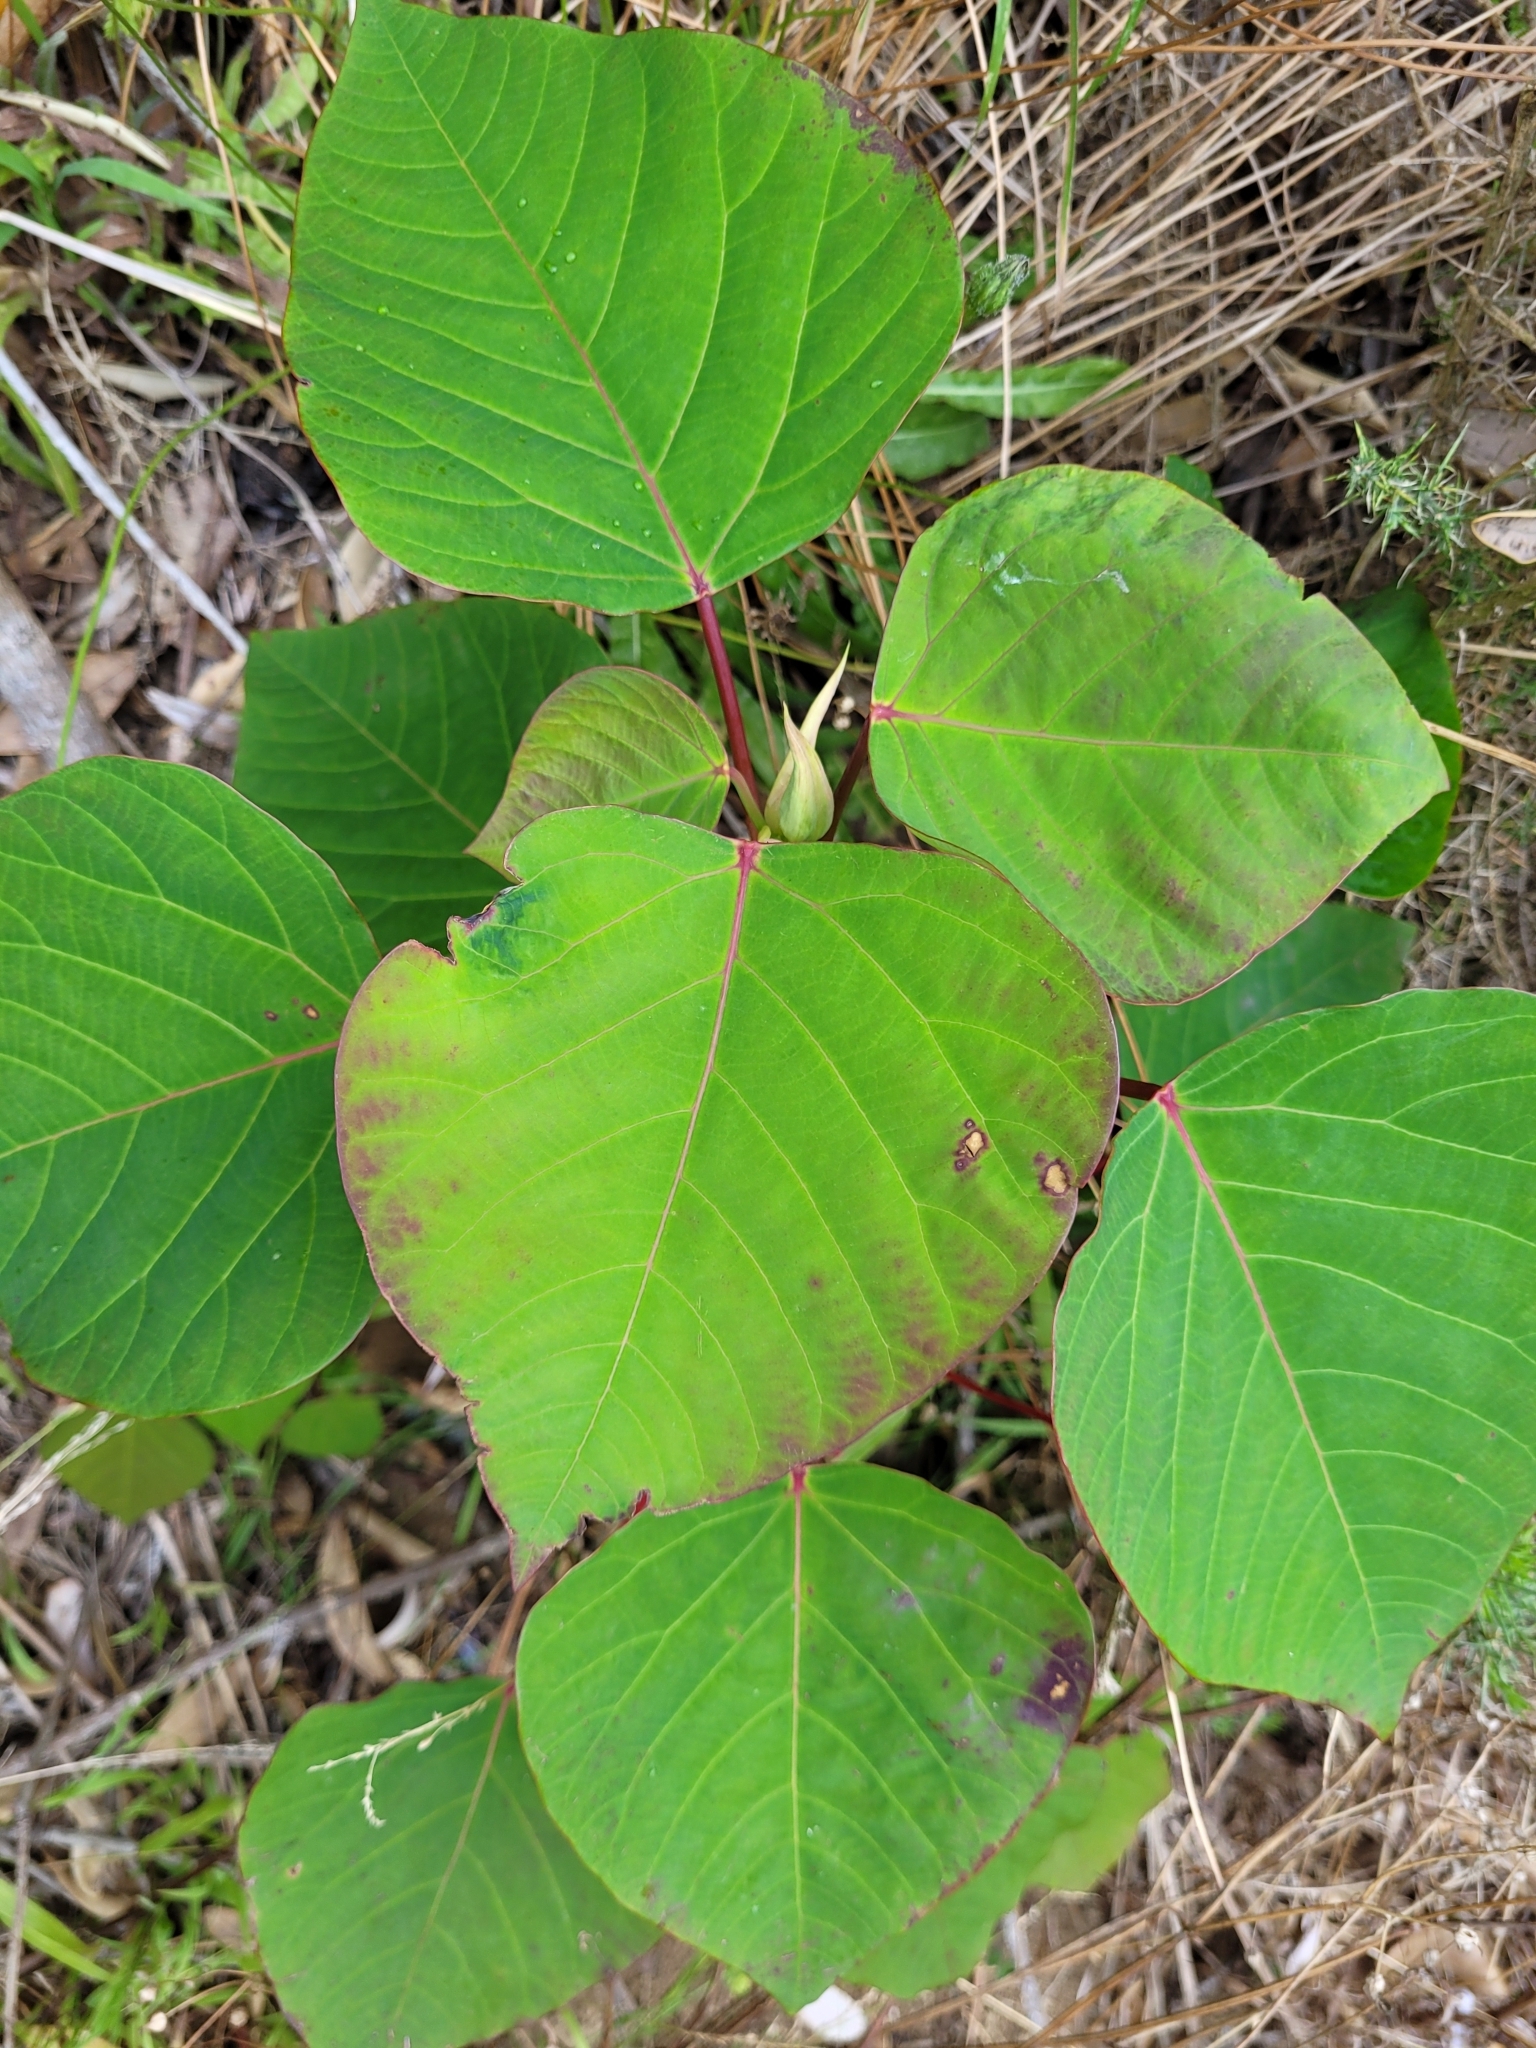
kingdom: Plantae
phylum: Tracheophyta
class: Magnoliopsida
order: Malpighiales
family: Euphorbiaceae
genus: Homalanthus
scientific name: Homalanthus populifolius
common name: Queensland poplar
